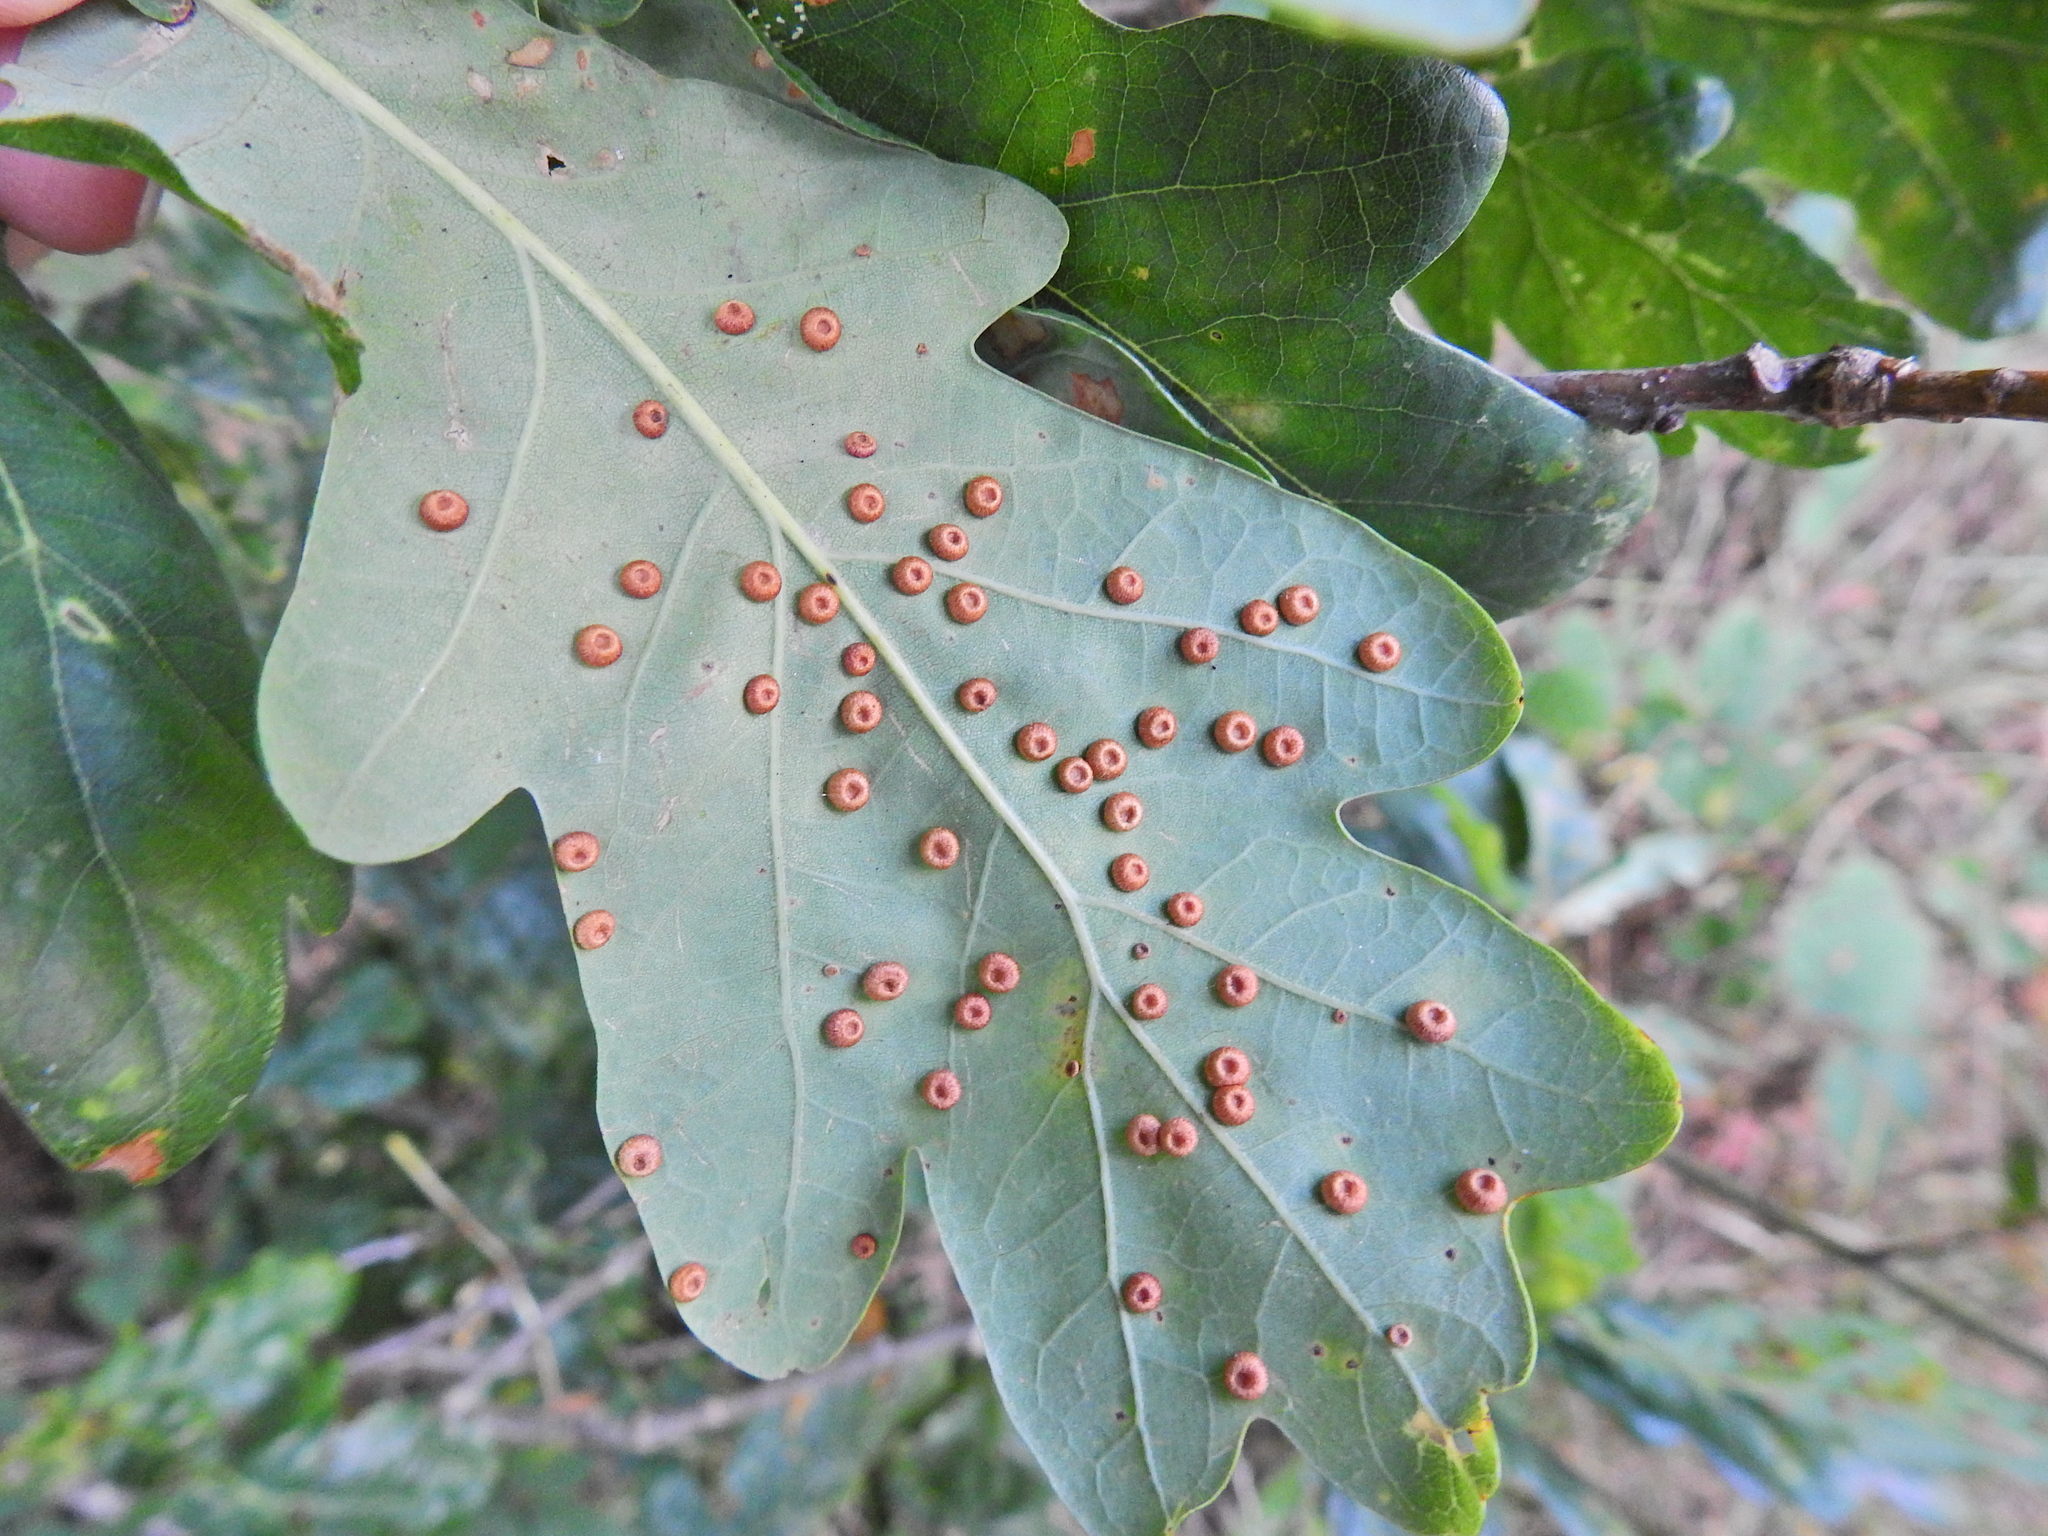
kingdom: Animalia
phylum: Arthropoda
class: Insecta
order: Hymenoptera
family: Cynipidae
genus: Neuroterus
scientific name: Neuroterus numismalis
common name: Silk-button spangle gall
